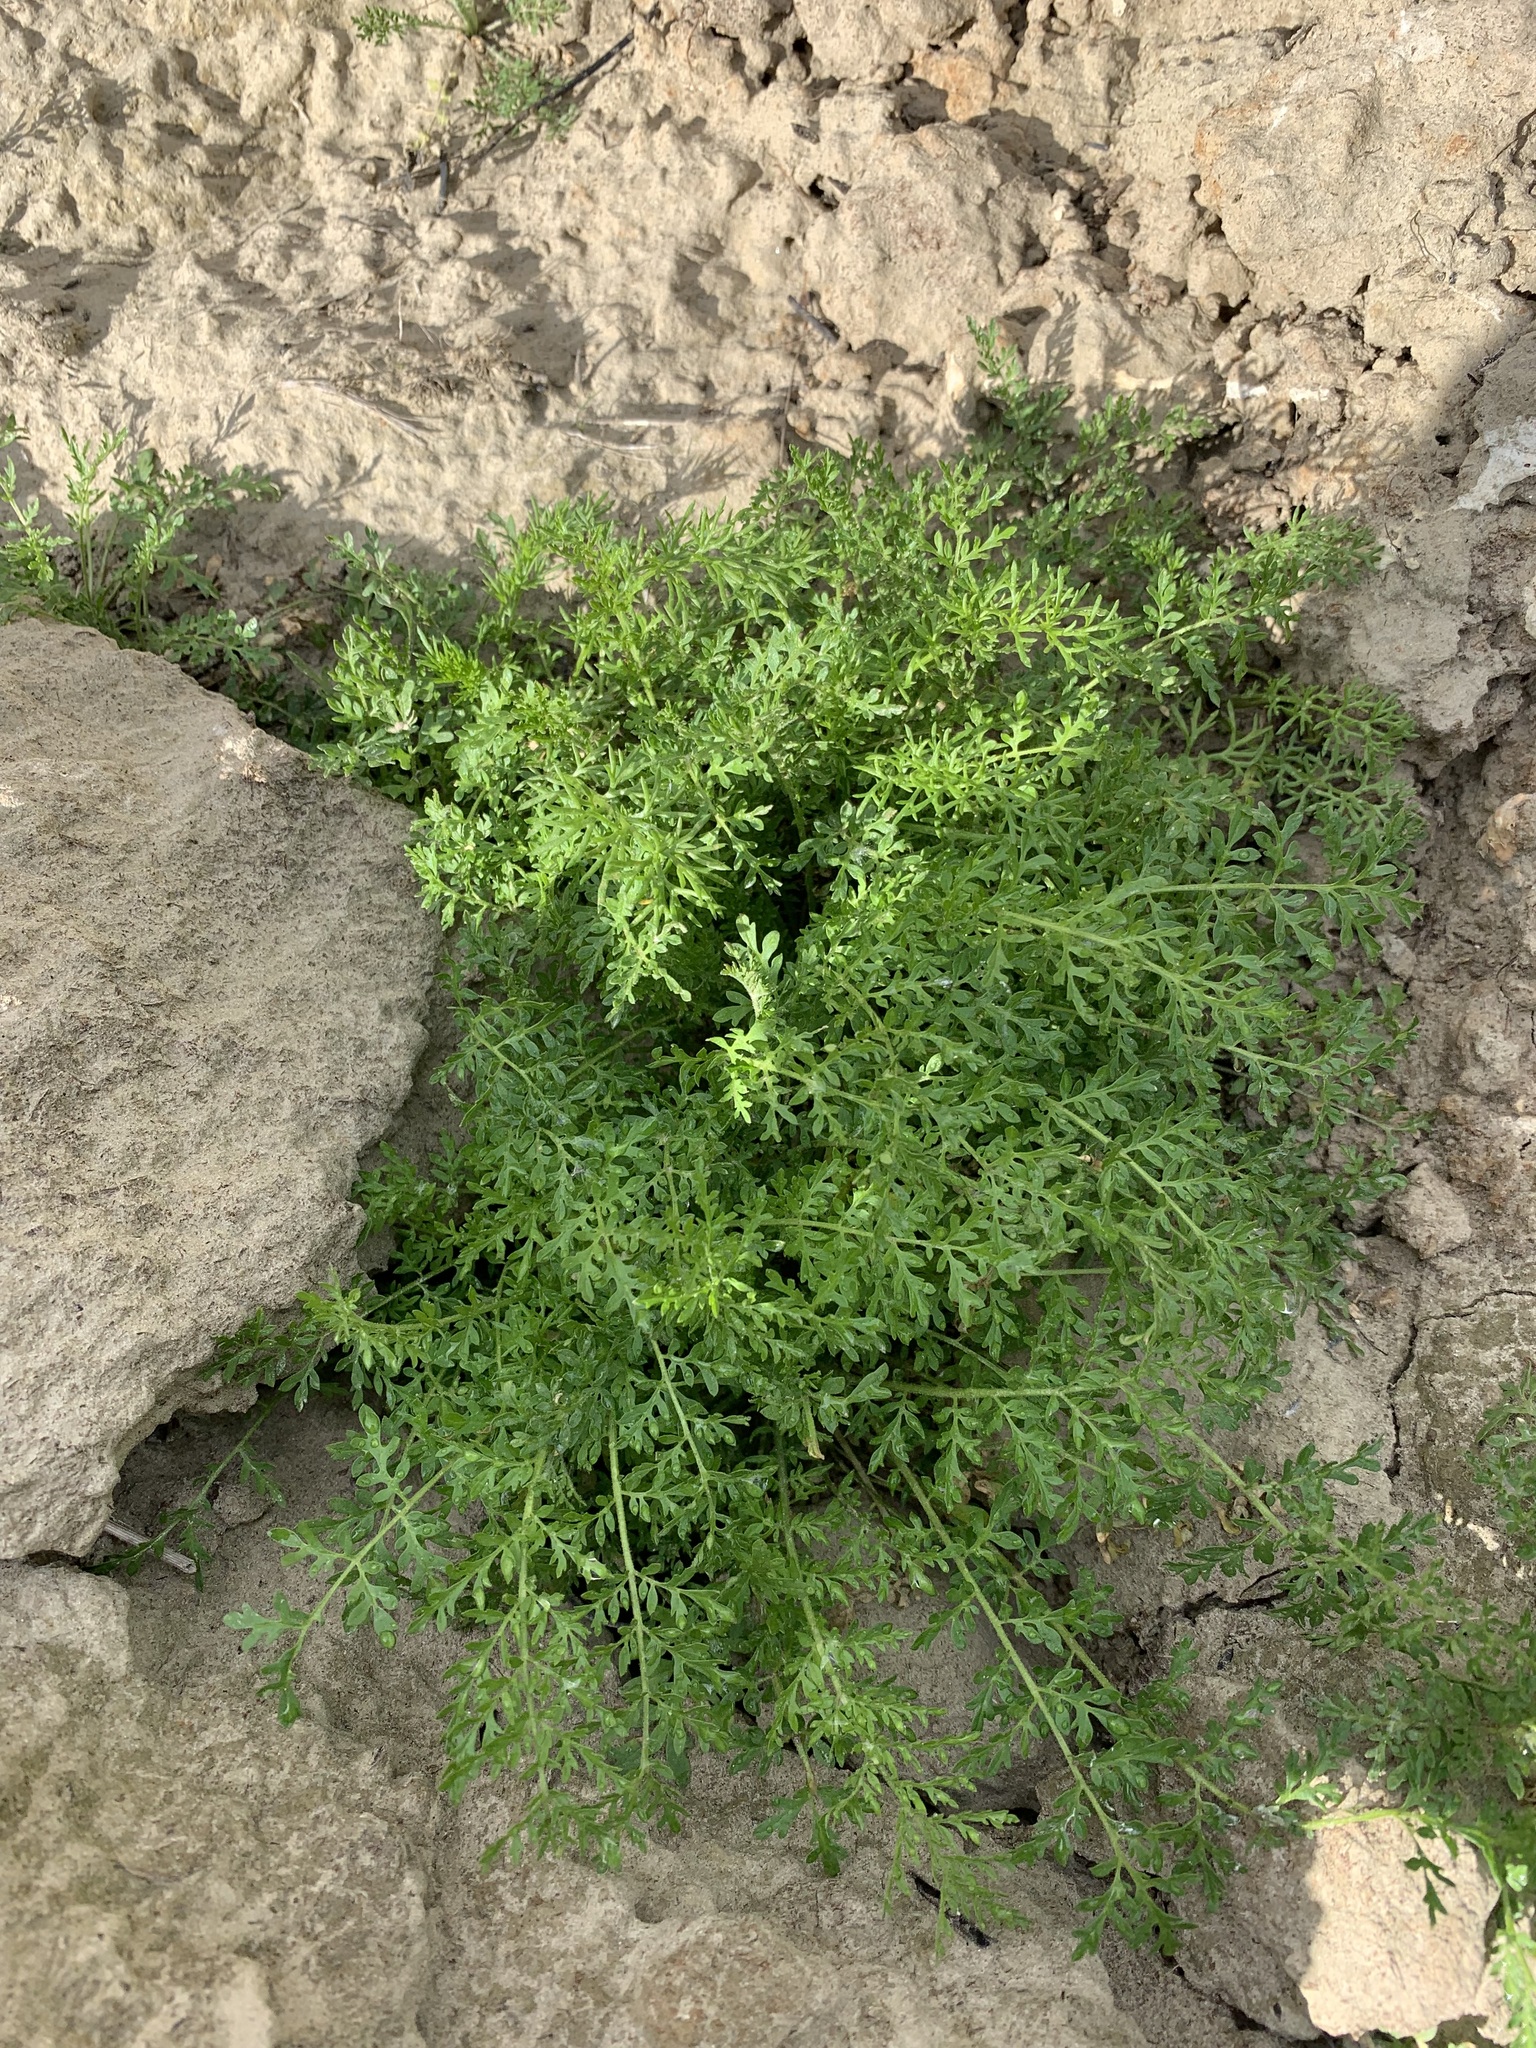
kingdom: Plantae
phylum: Tracheophyta
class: Magnoliopsida
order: Brassicales
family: Brassicaceae
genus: Descurainia
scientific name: Descurainia sophioides
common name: Northern tansy mustard
